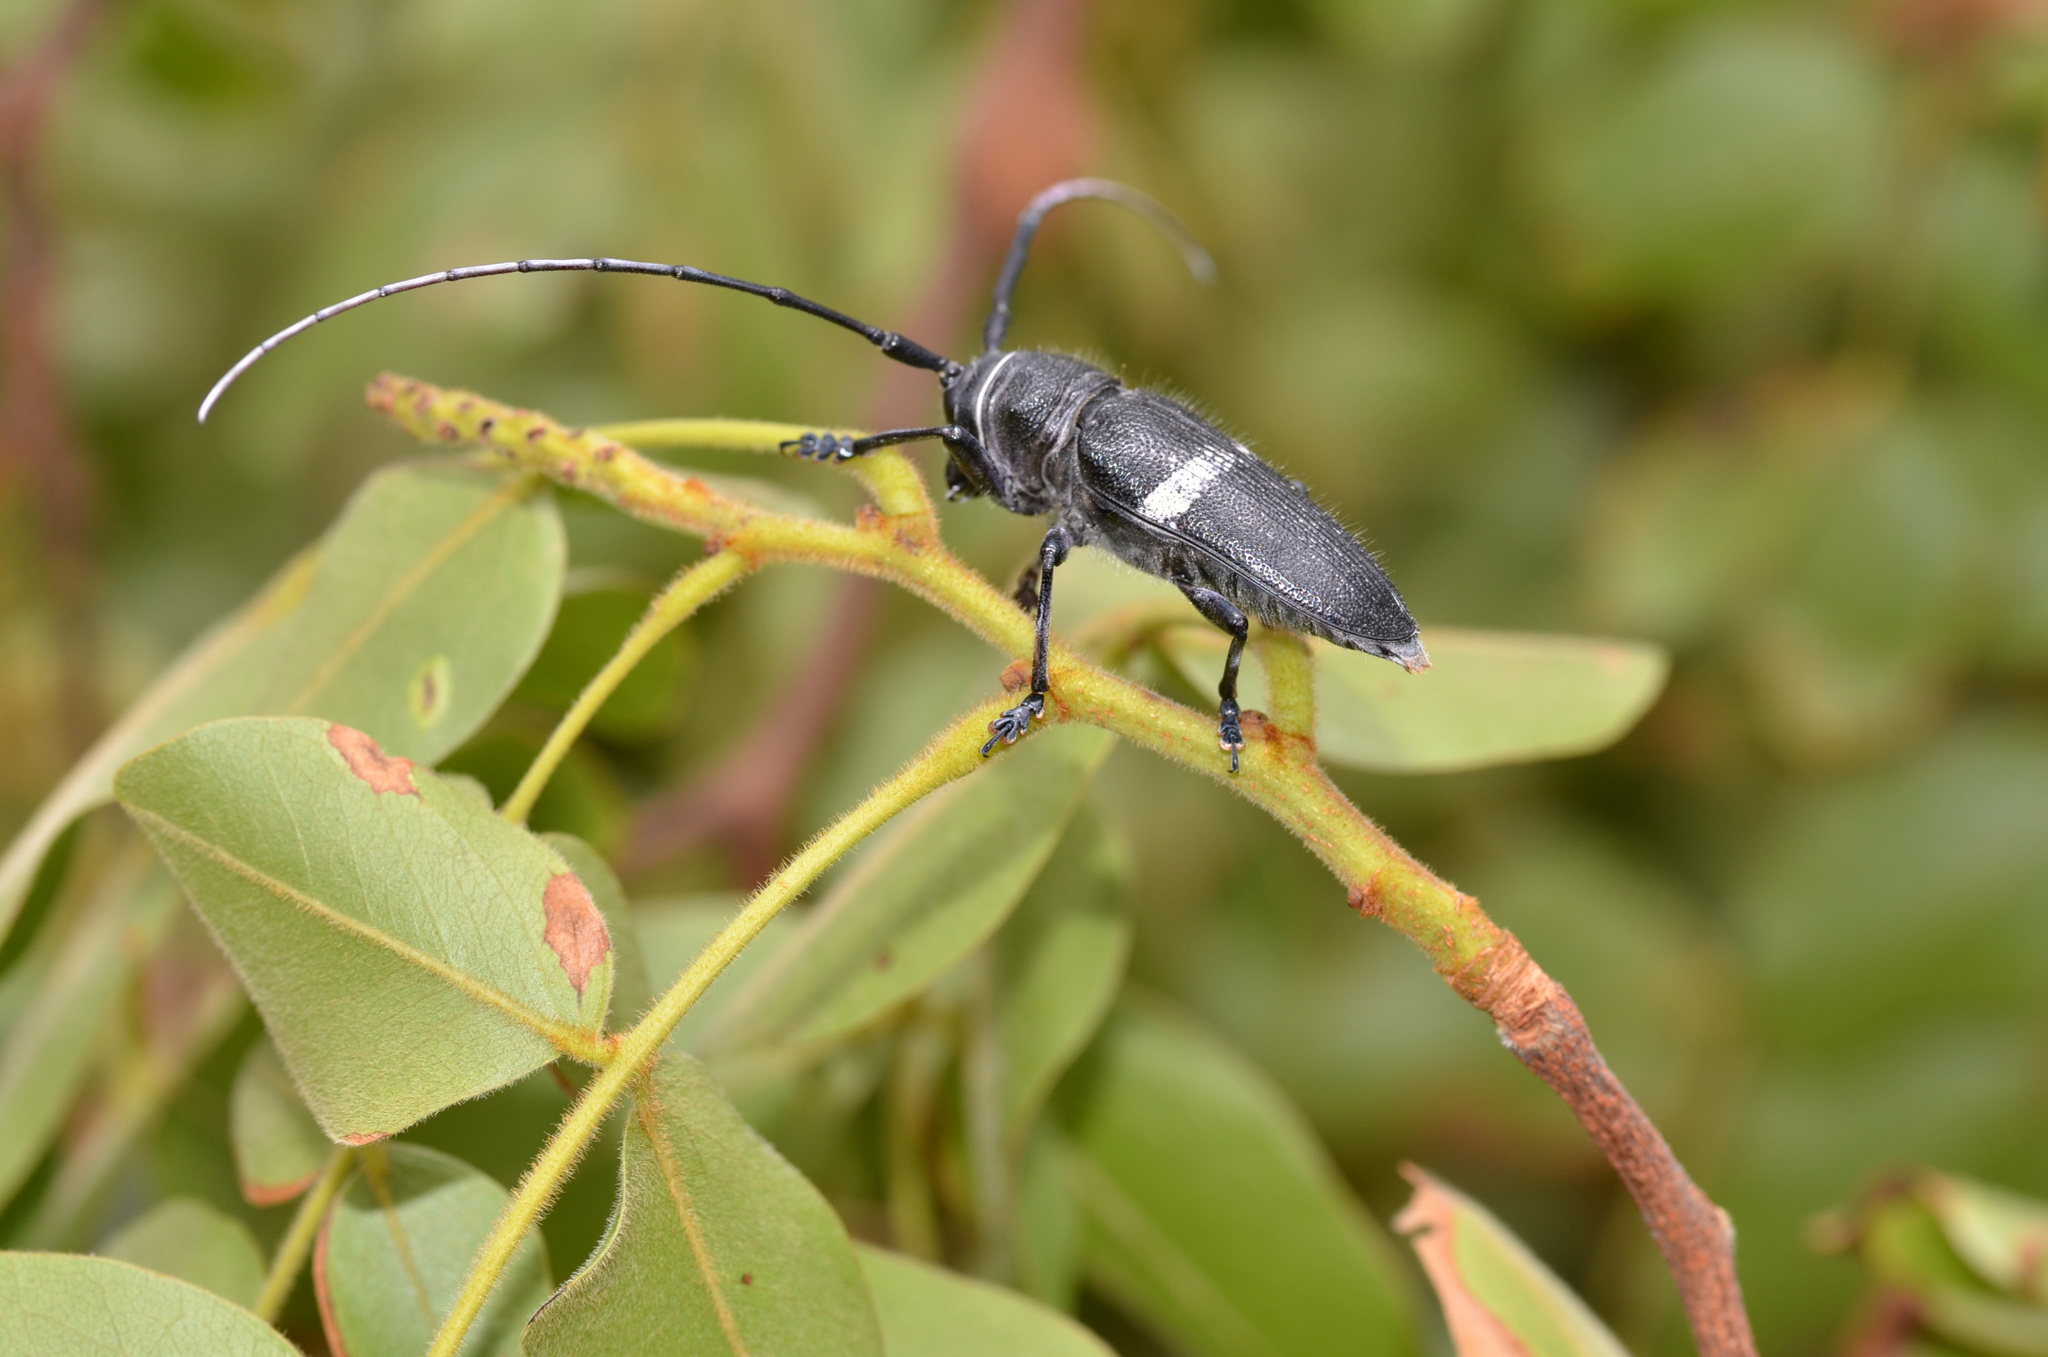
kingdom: Animalia
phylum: Arthropoda
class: Insecta
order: Coleoptera
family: Cerambycidae
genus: Zographus
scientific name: Zographus aulicus
